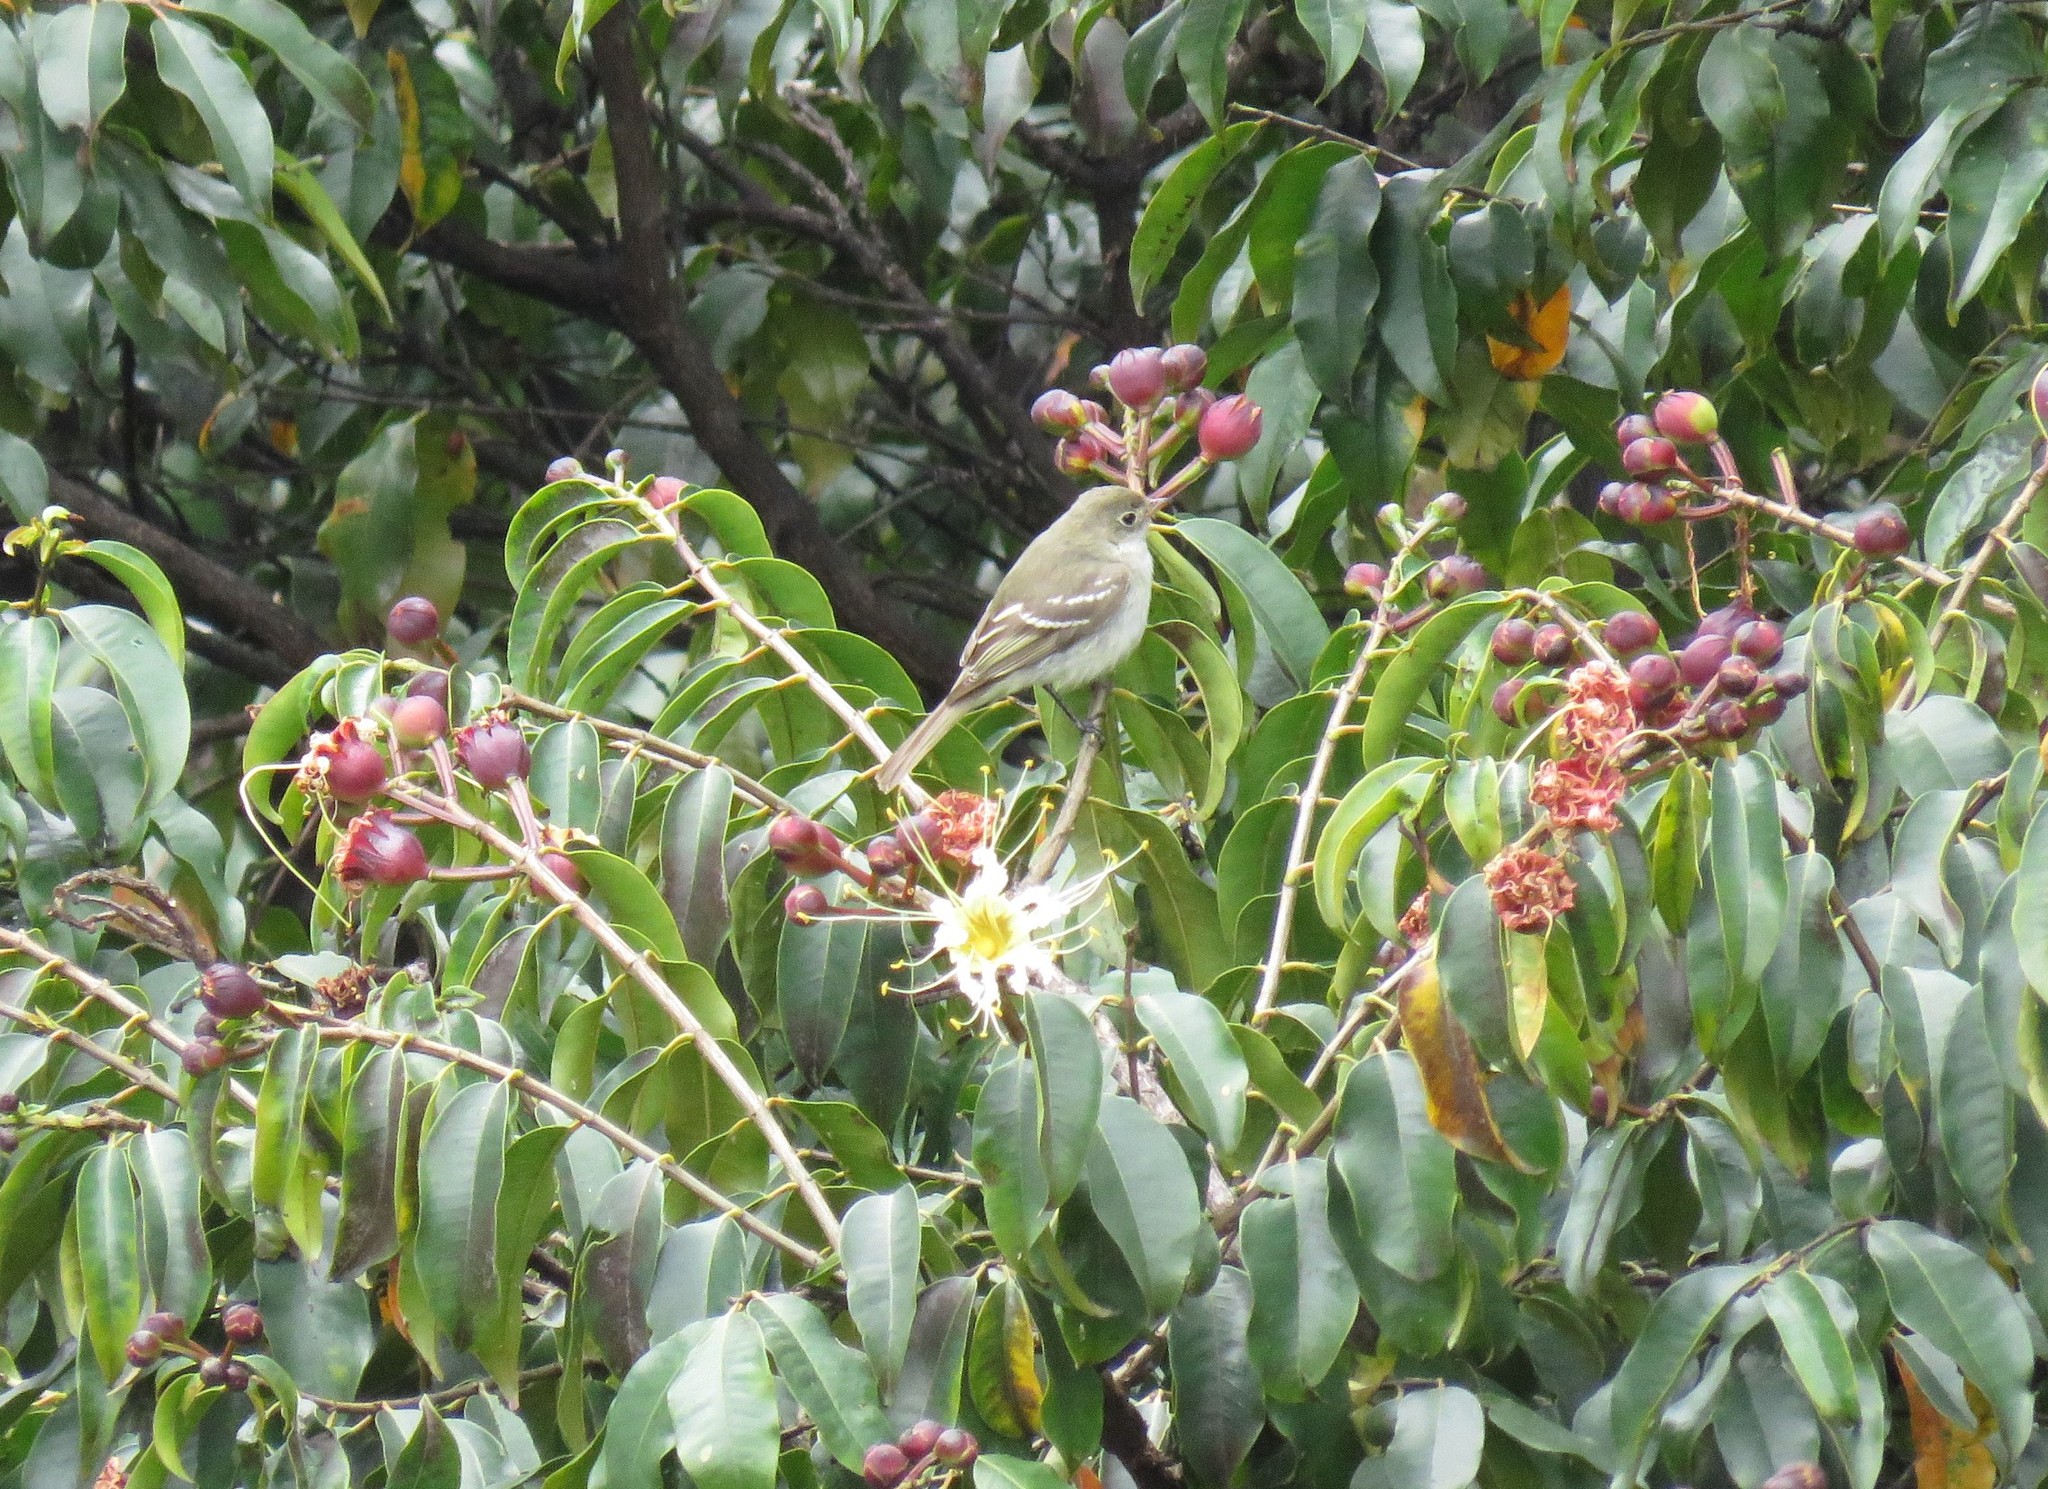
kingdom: Animalia
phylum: Chordata
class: Aves
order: Passeriformes
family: Tyrannidae
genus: Elaenia
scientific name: Elaenia frantzii
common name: Mountain elaenia
